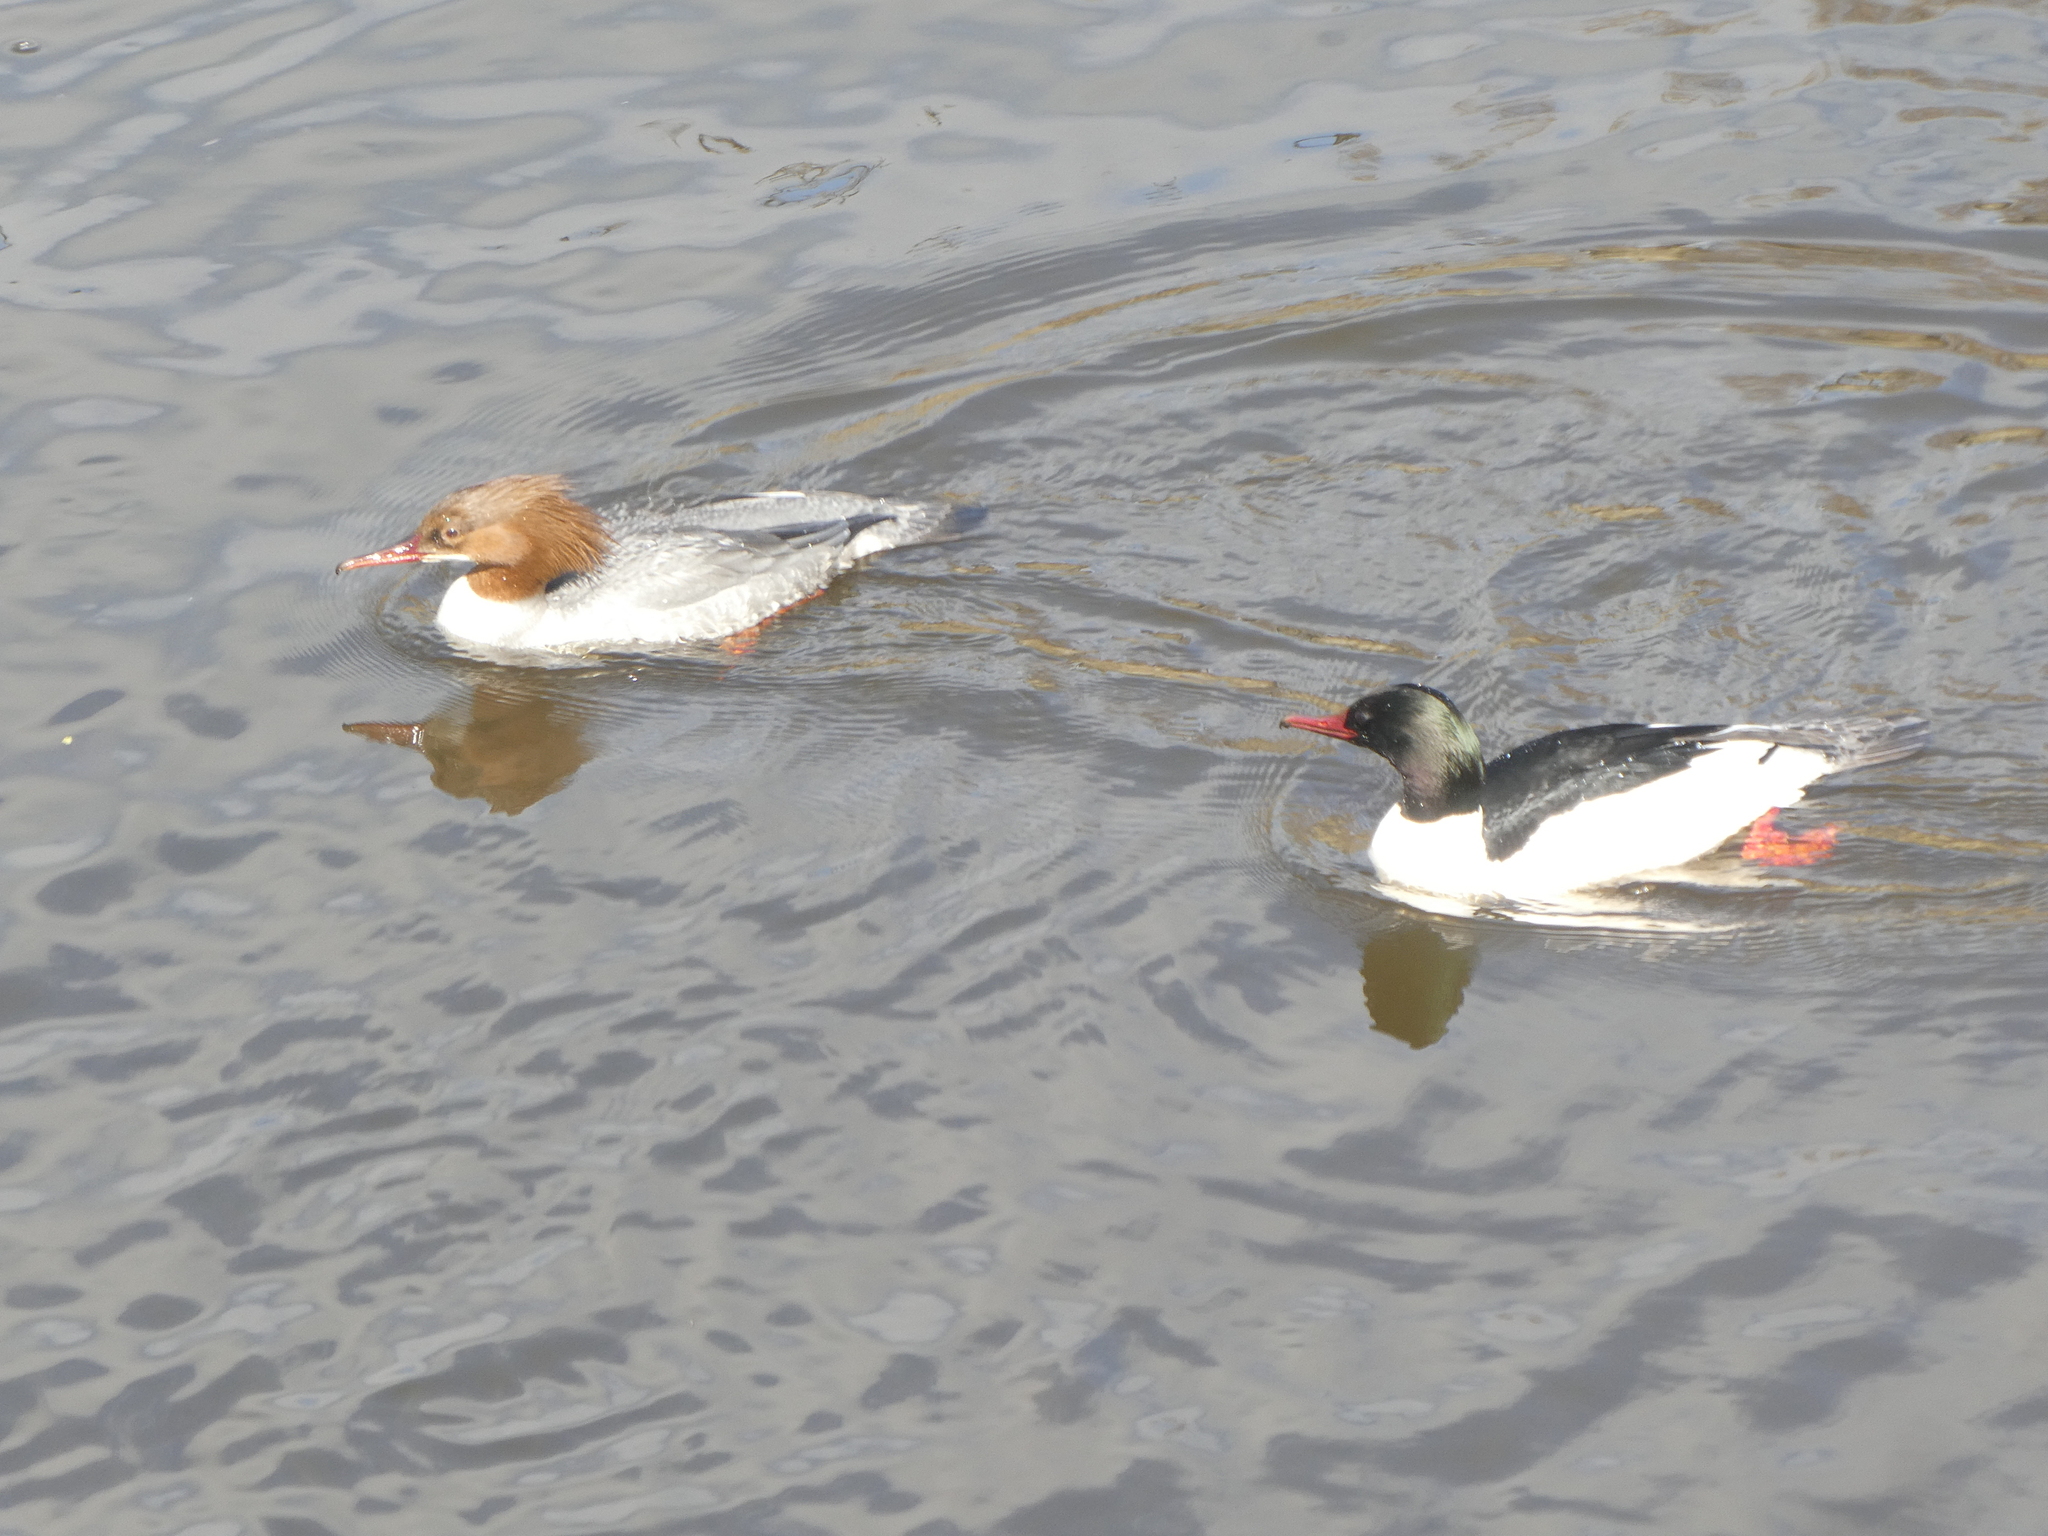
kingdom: Animalia
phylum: Chordata
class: Aves
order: Anseriformes
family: Anatidae
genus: Mergus
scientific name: Mergus merganser
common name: Common merganser
